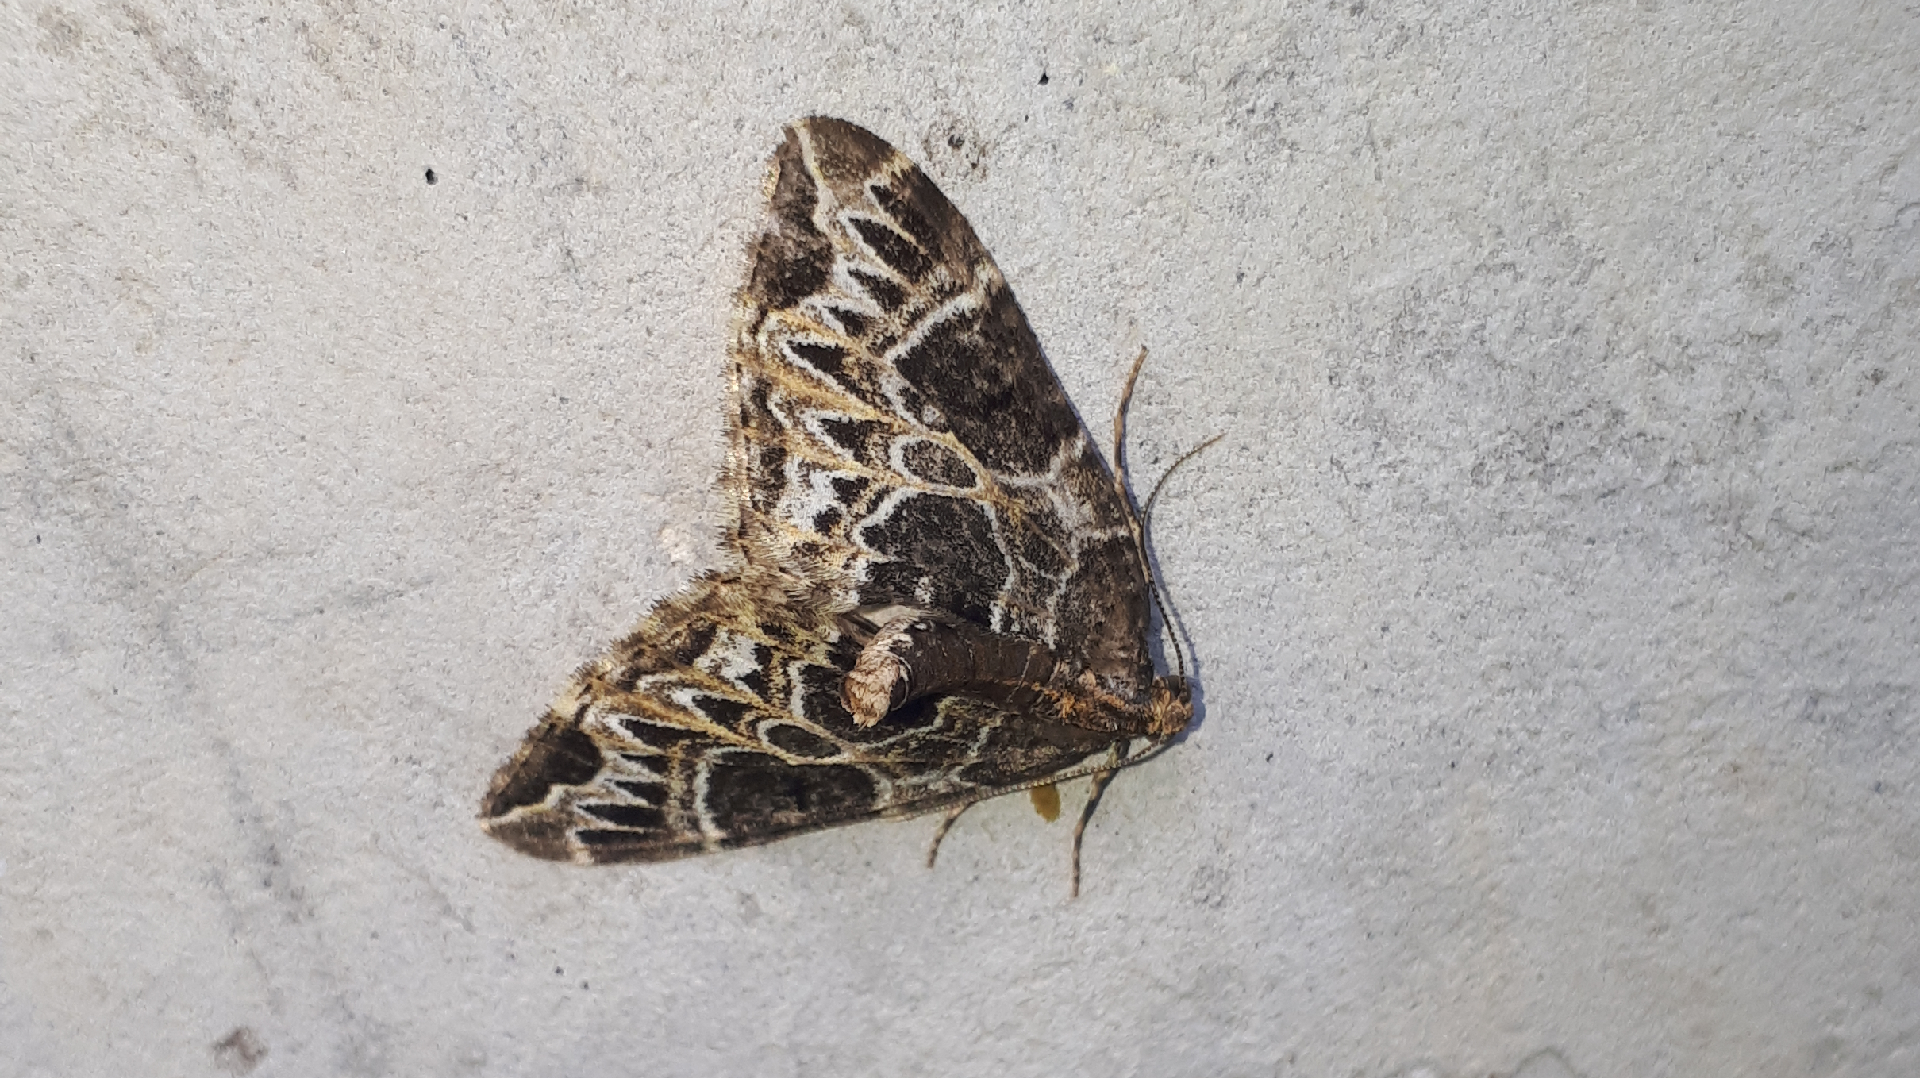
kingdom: Animalia
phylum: Arthropoda
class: Insecta
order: Lepidoptera
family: Geometridae
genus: Ecliptopera
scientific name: Ecliptopera silaceata
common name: Small phoenix
